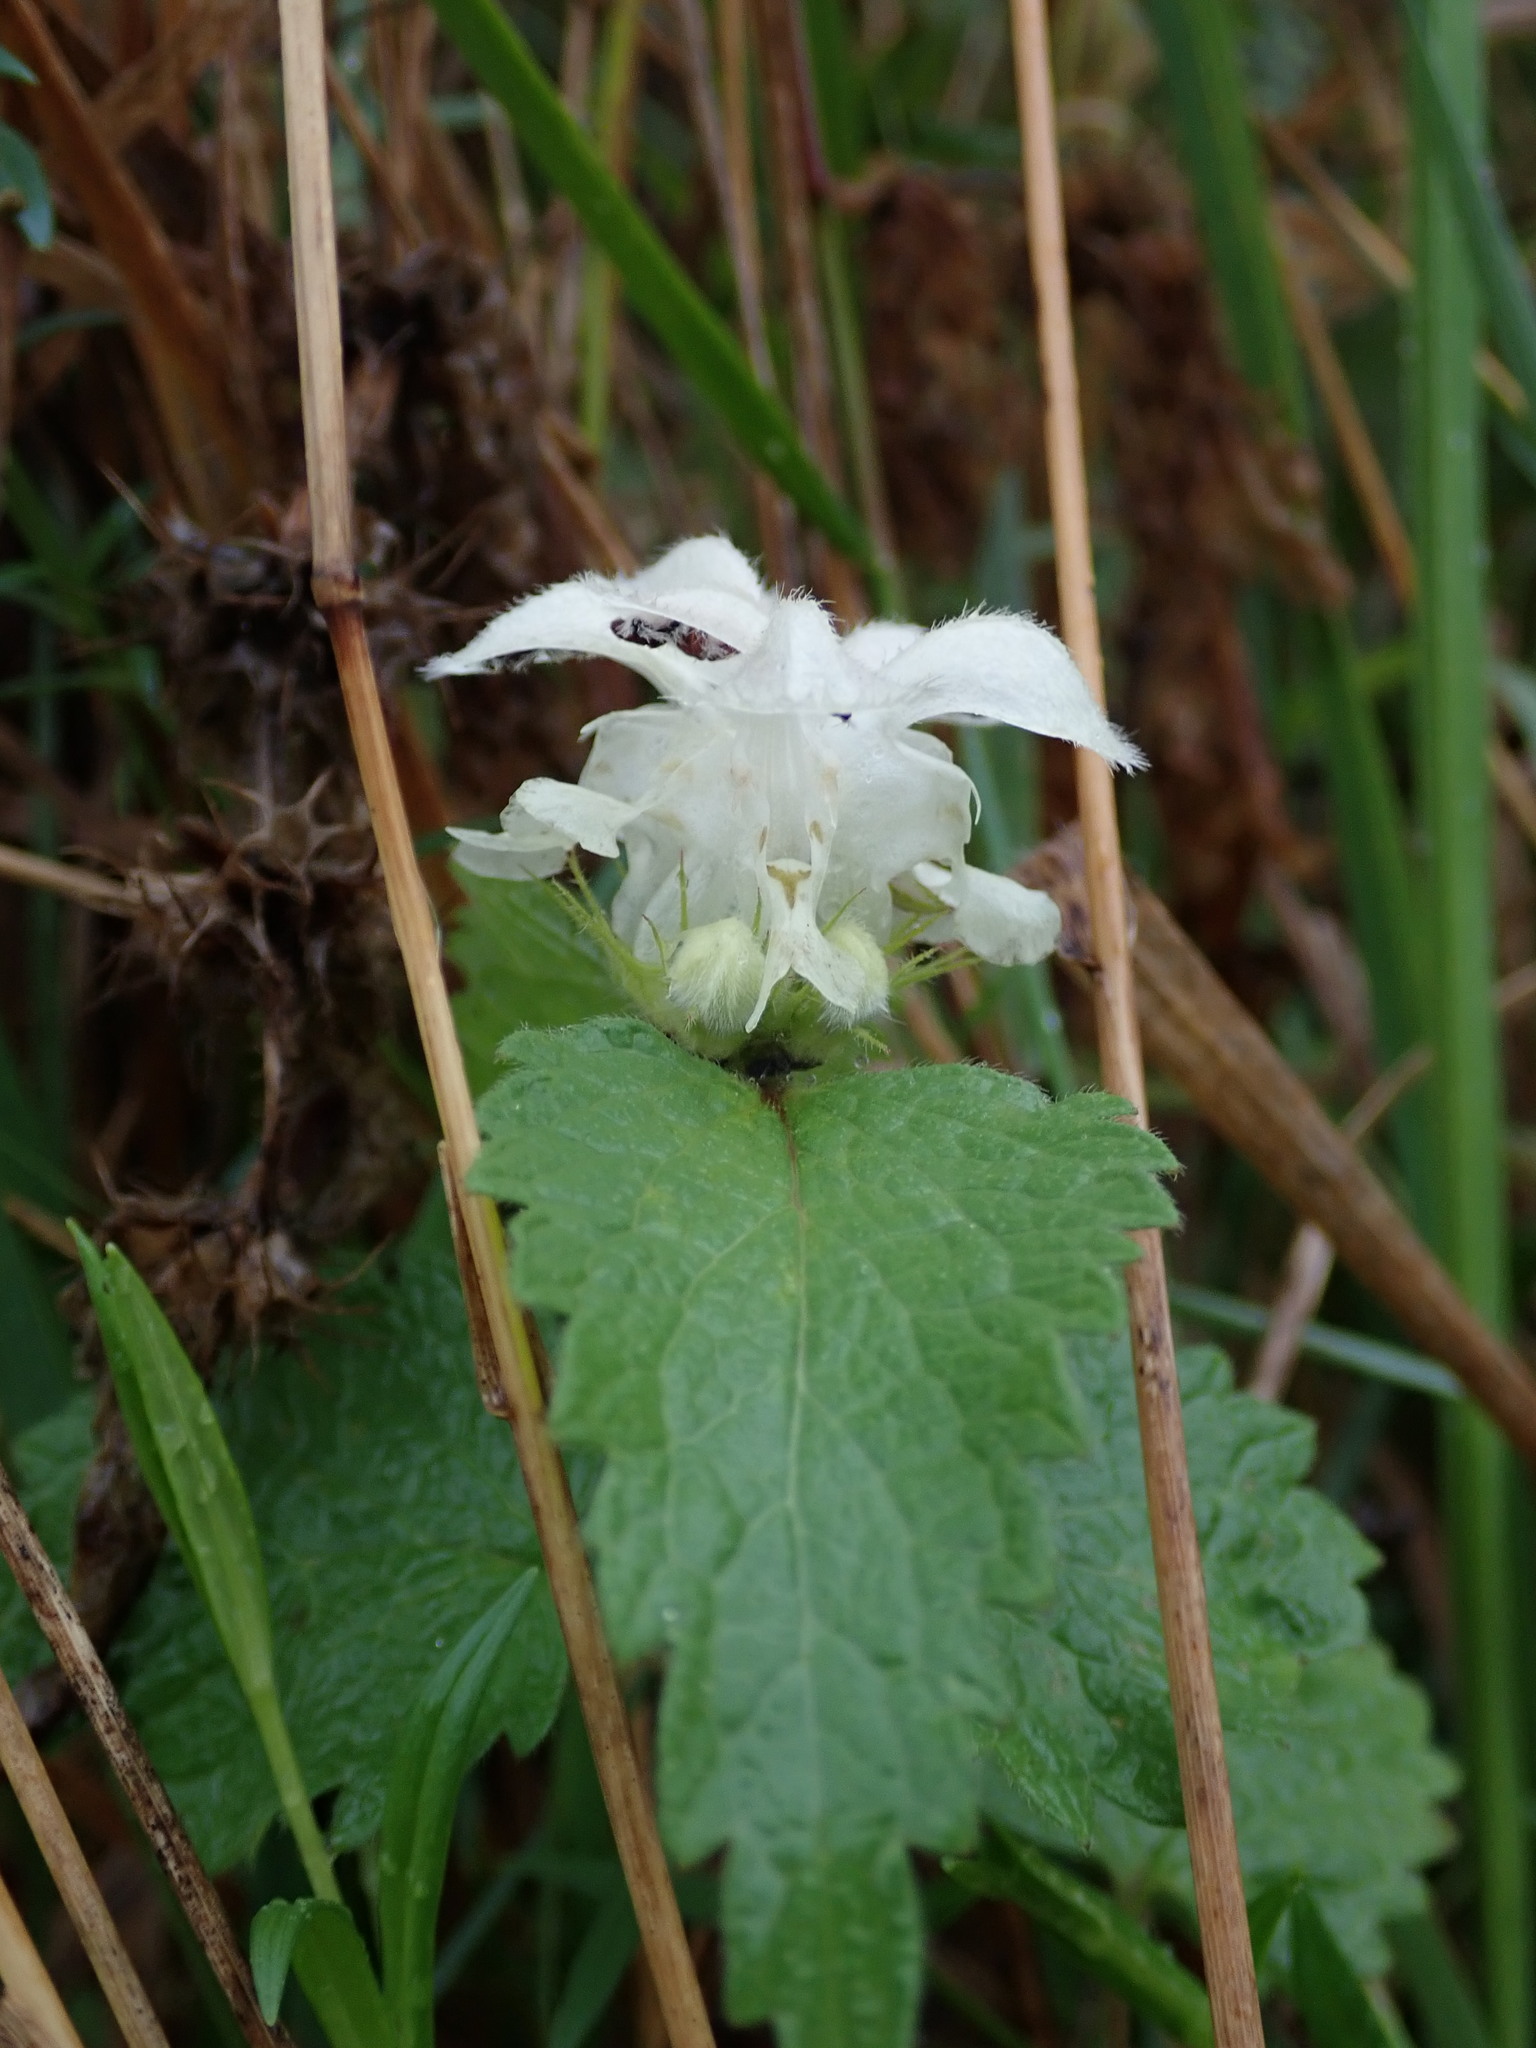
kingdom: Plantae
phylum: Tracheophyta
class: Magnoliopsida
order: Lamiales
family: Lamiaceae
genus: Lamium
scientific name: Lamium album
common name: White dead-nettle
